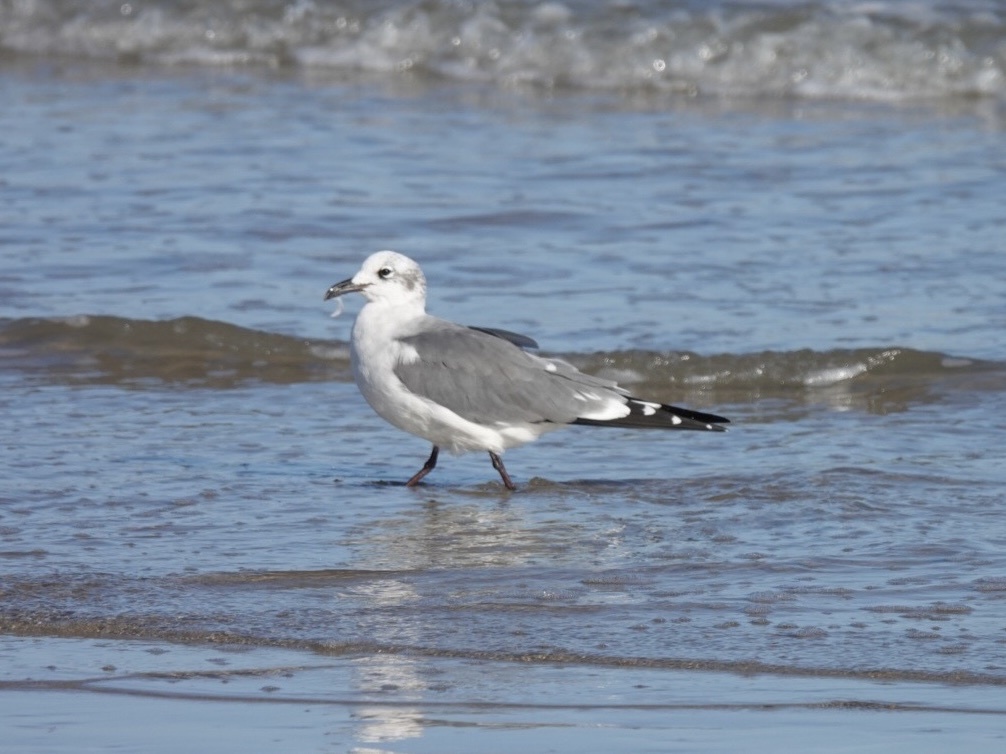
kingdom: Animalia
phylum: Chordata
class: Aves
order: Charadriiformes
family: Laridae
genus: Leucophaeus
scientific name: Leucophaeus atricilla
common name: Laughing gull
